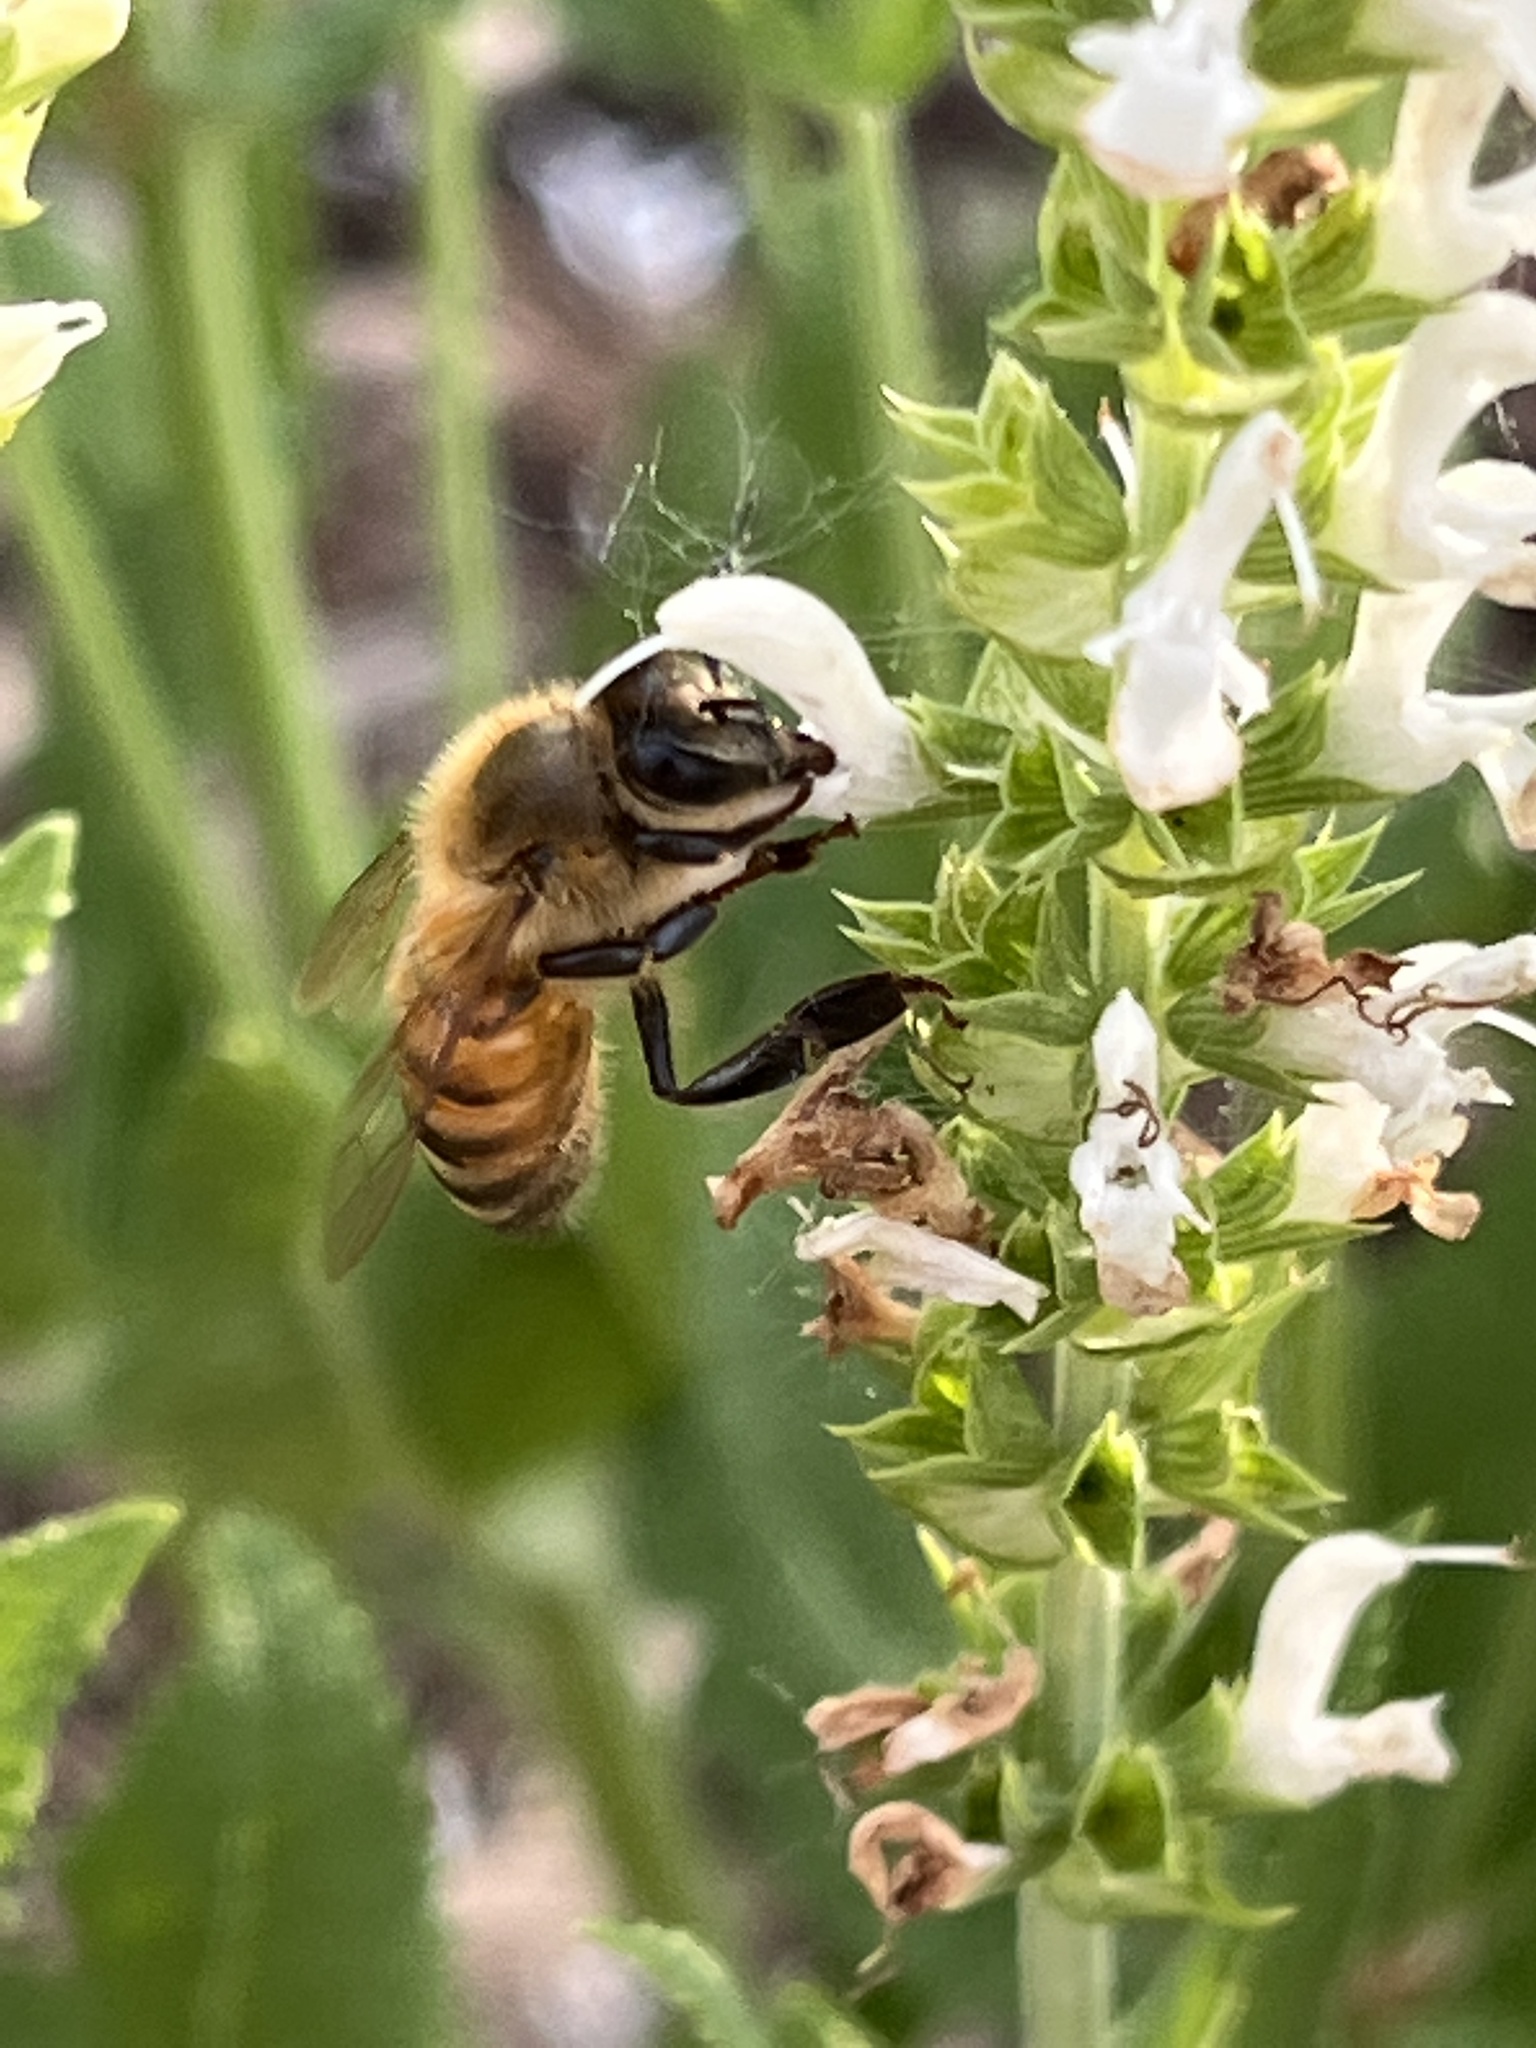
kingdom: Animalia
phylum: Arthropoda
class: Insecta
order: Hymenoptera
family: Apidae
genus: Apis
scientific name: Apis mellifera
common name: Honey bee
